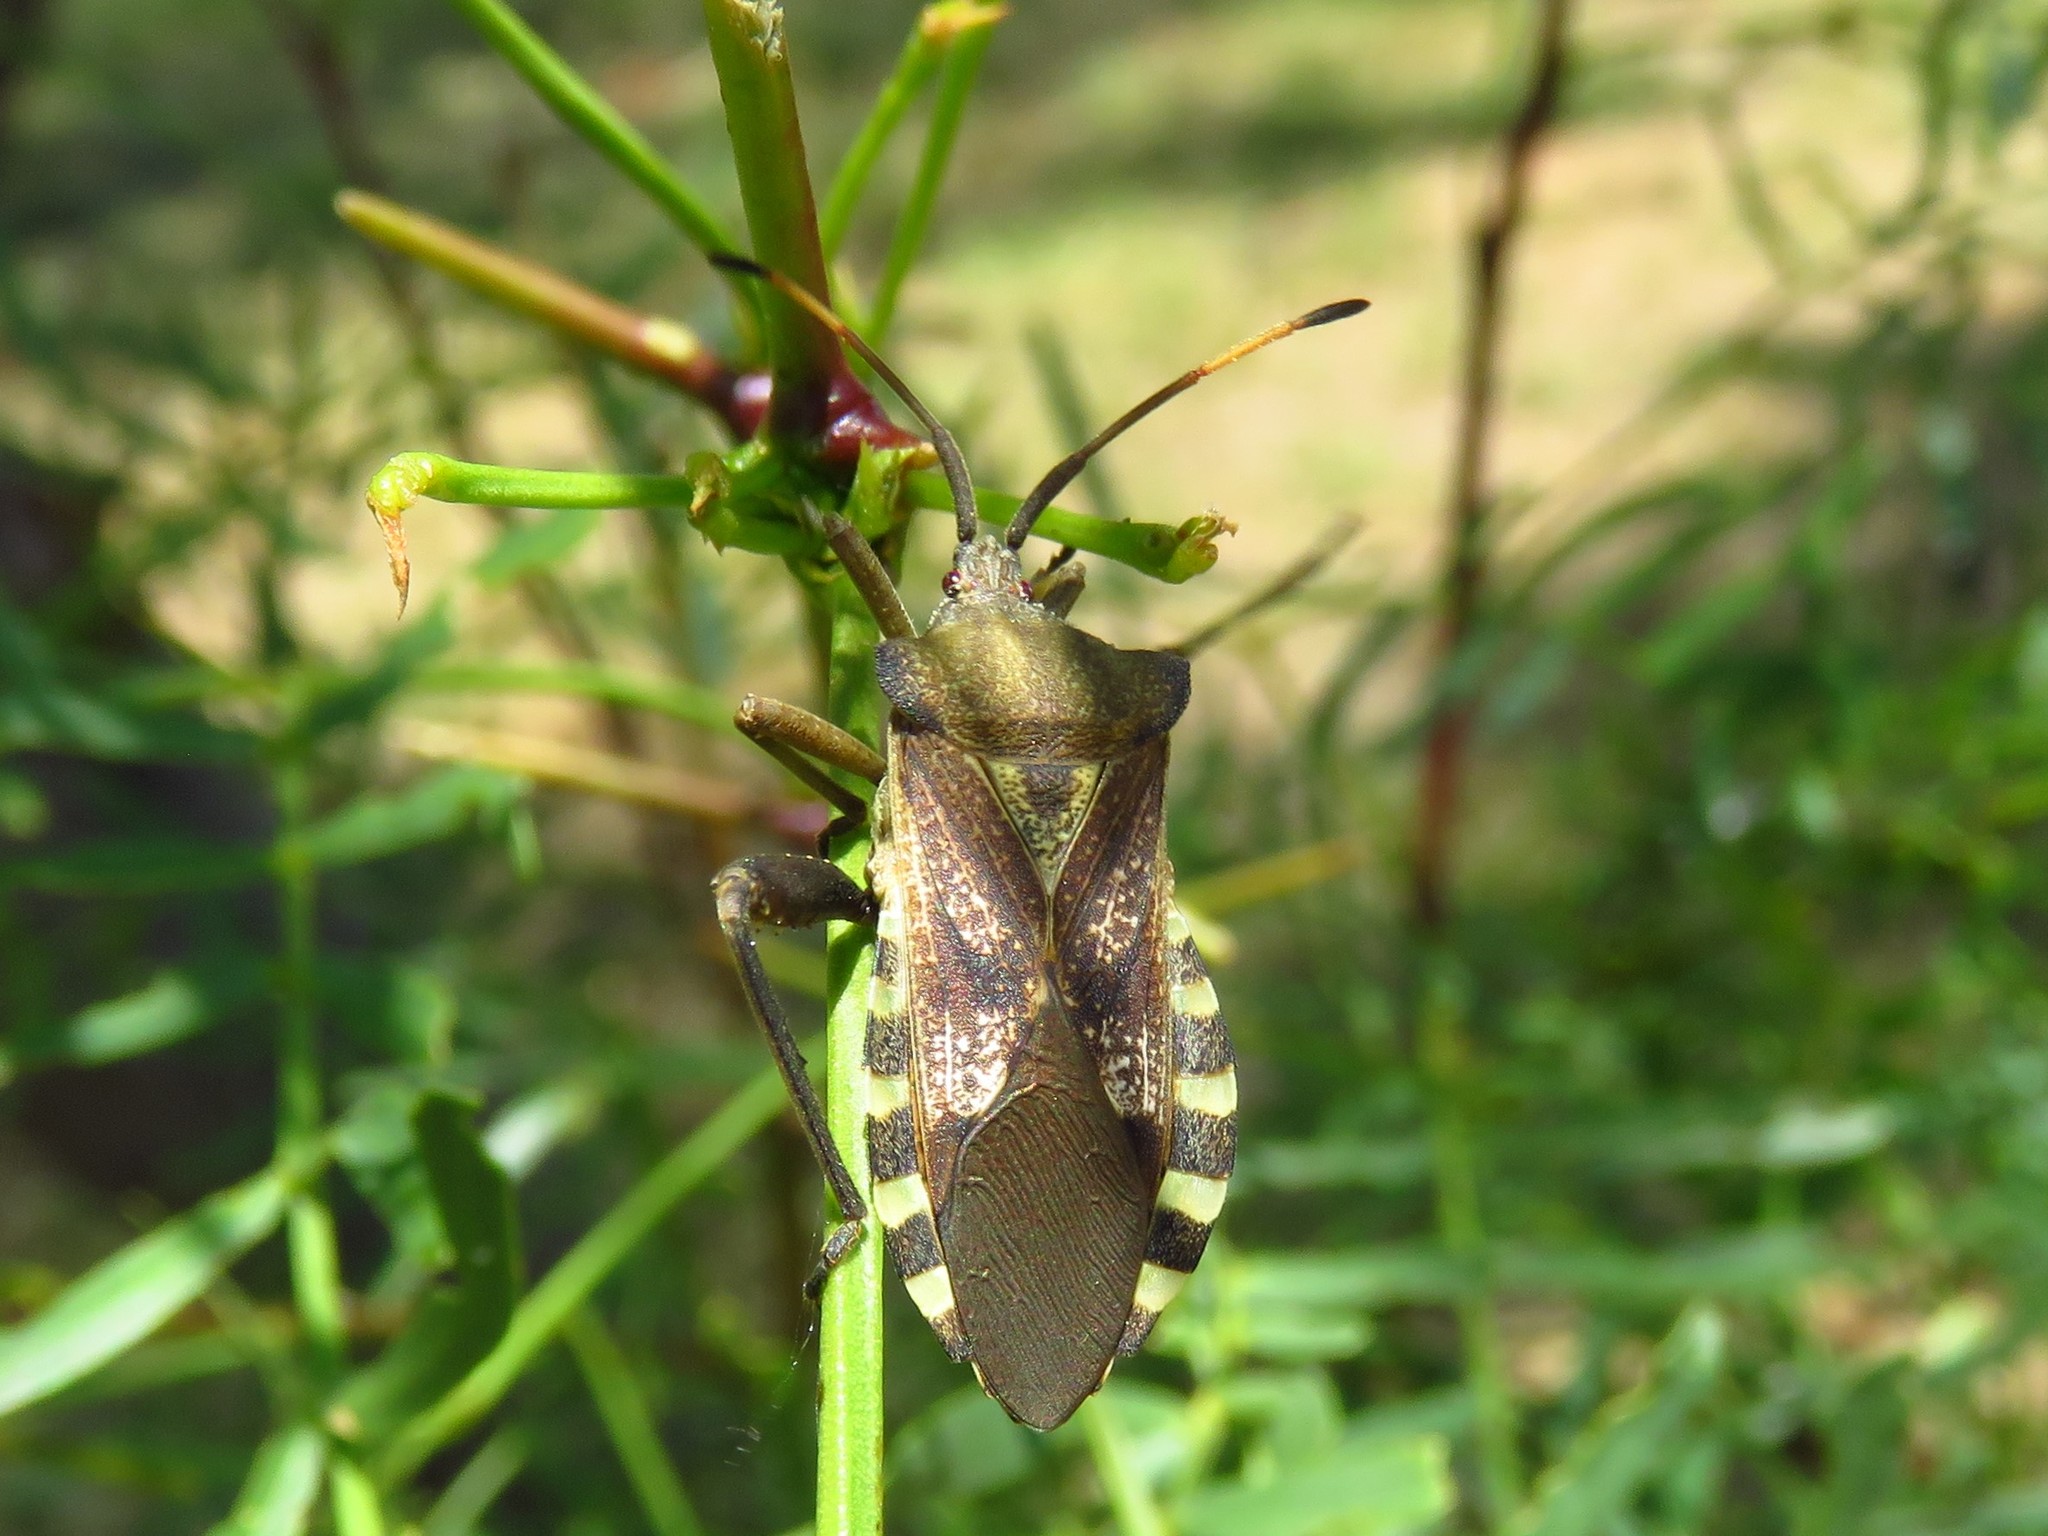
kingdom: Animalia
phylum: Arthropoda
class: Insecta
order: Hemiptera
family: Coreidae
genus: Mozena
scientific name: Mozena obtusa
